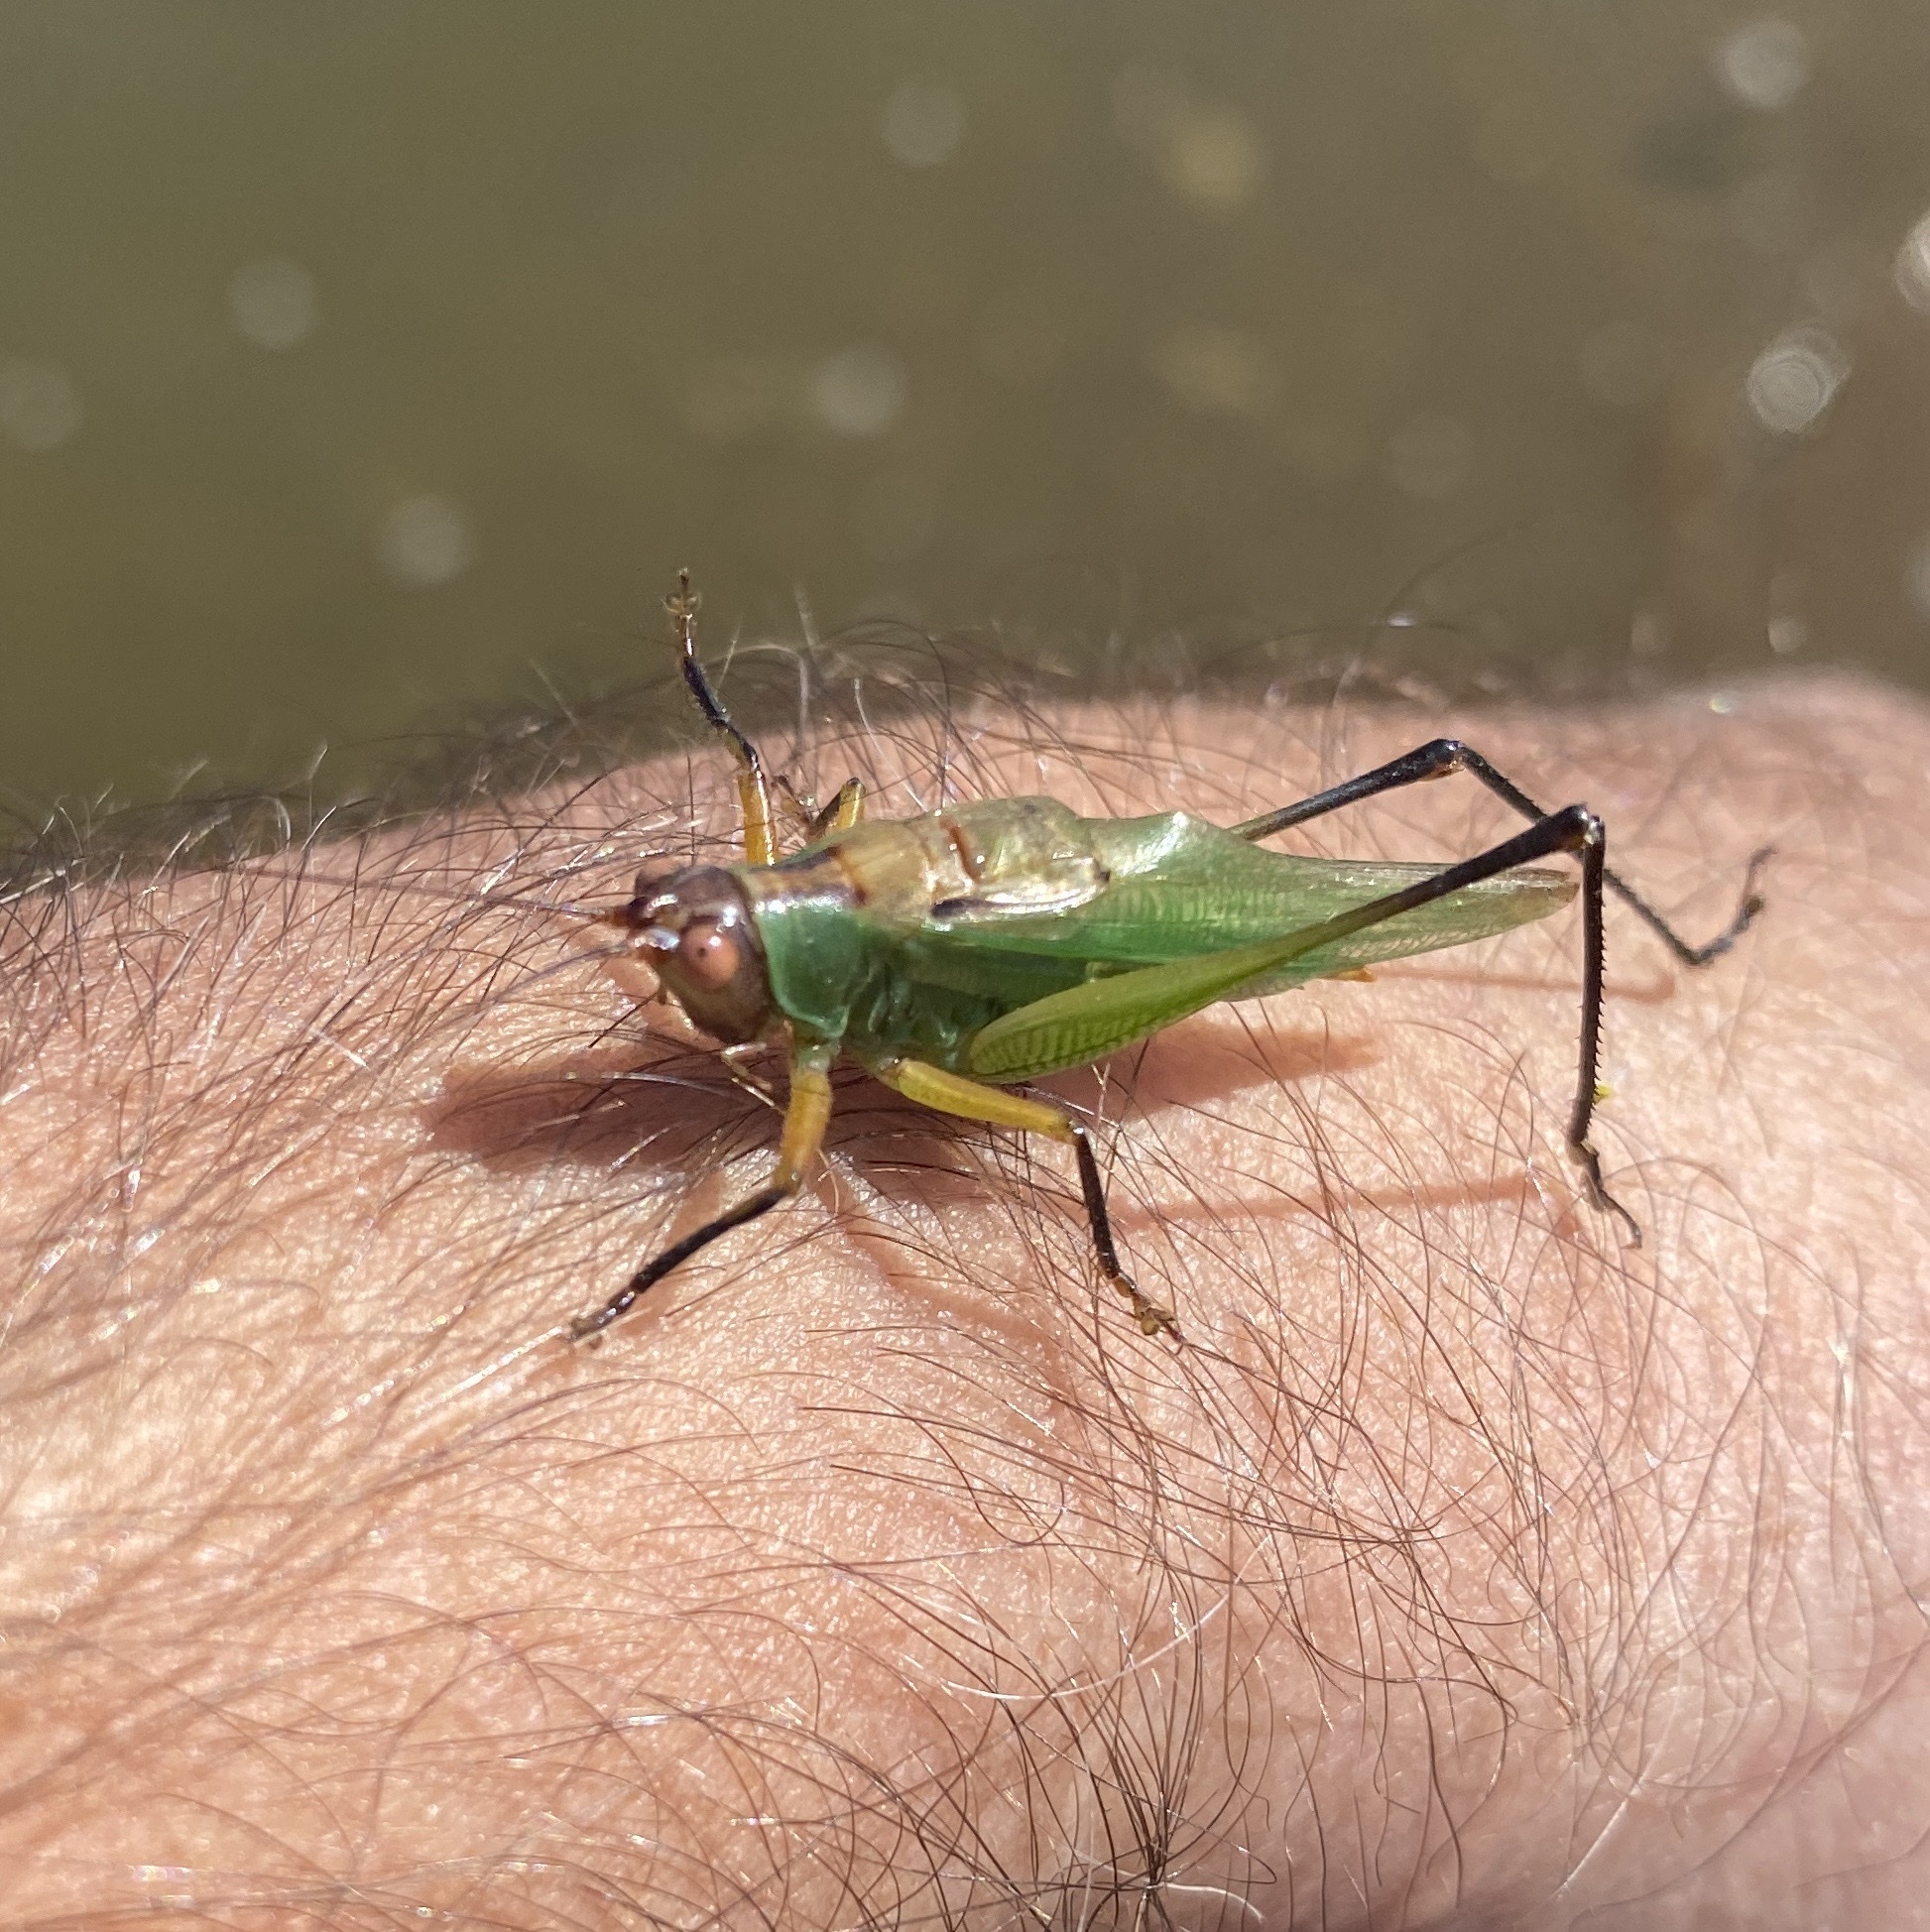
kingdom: Animalia
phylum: Arthropoda
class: Insecta
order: Orthoptera
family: Tettigoniidae
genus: Orchelimum
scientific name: Orchelimum nigripes
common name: Black-legged meadow katydid
